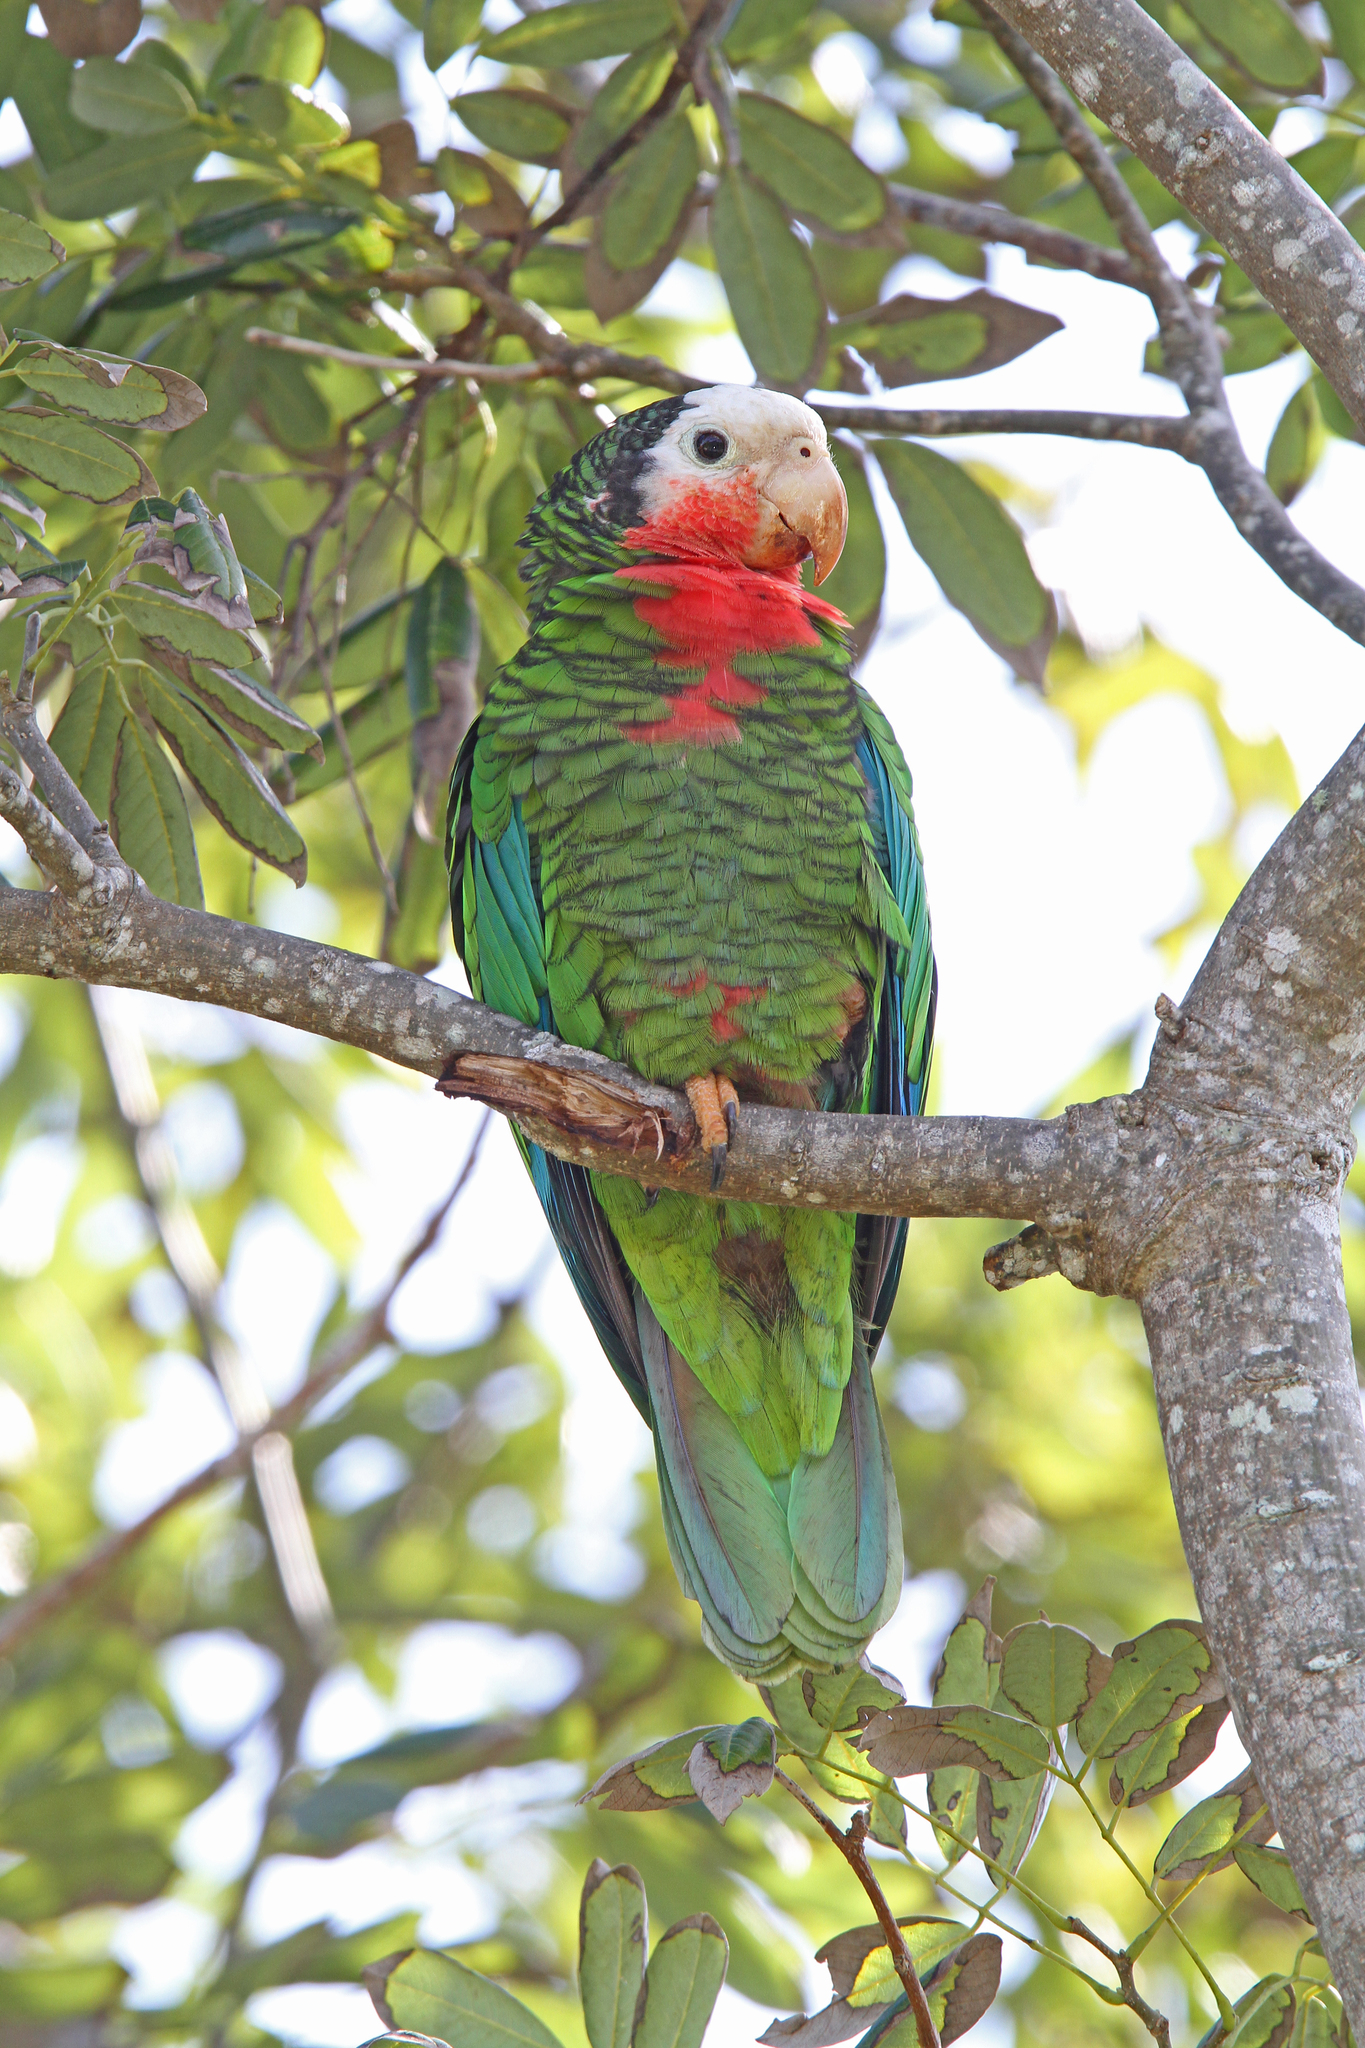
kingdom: Animalia
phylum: Chordata
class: Aves
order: Psittaciformes
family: Psittacidae
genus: Amazona
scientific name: Amazona leucocephala
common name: Cuban amazon
